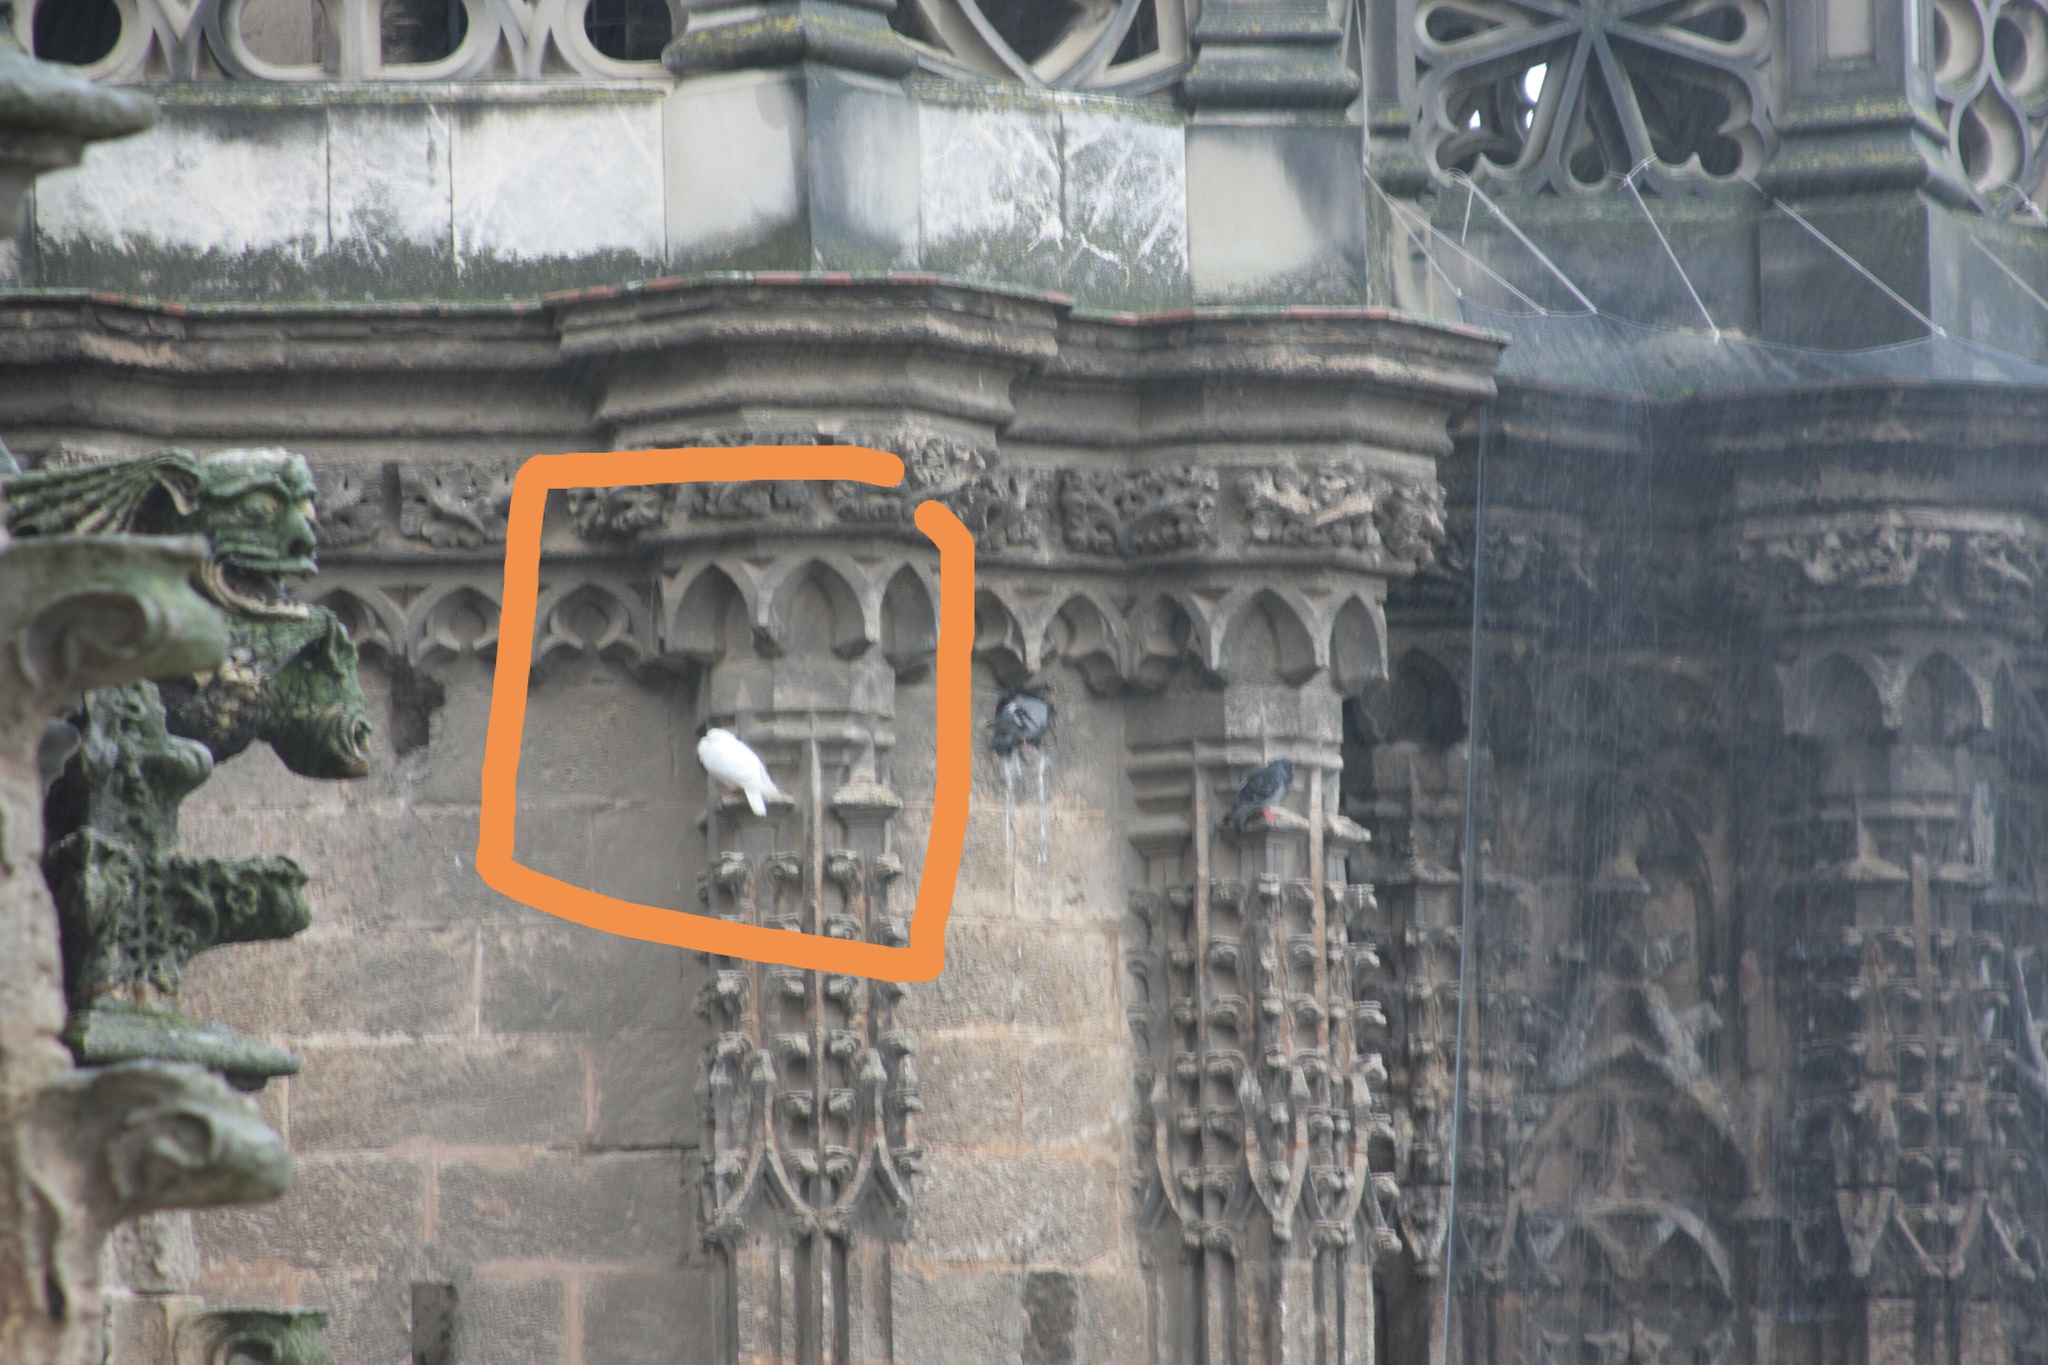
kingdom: Animalia
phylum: Chordata
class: Aves
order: Columbiformes
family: Columbidae
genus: Columba
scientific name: Columba livia
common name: Rock pigeon
